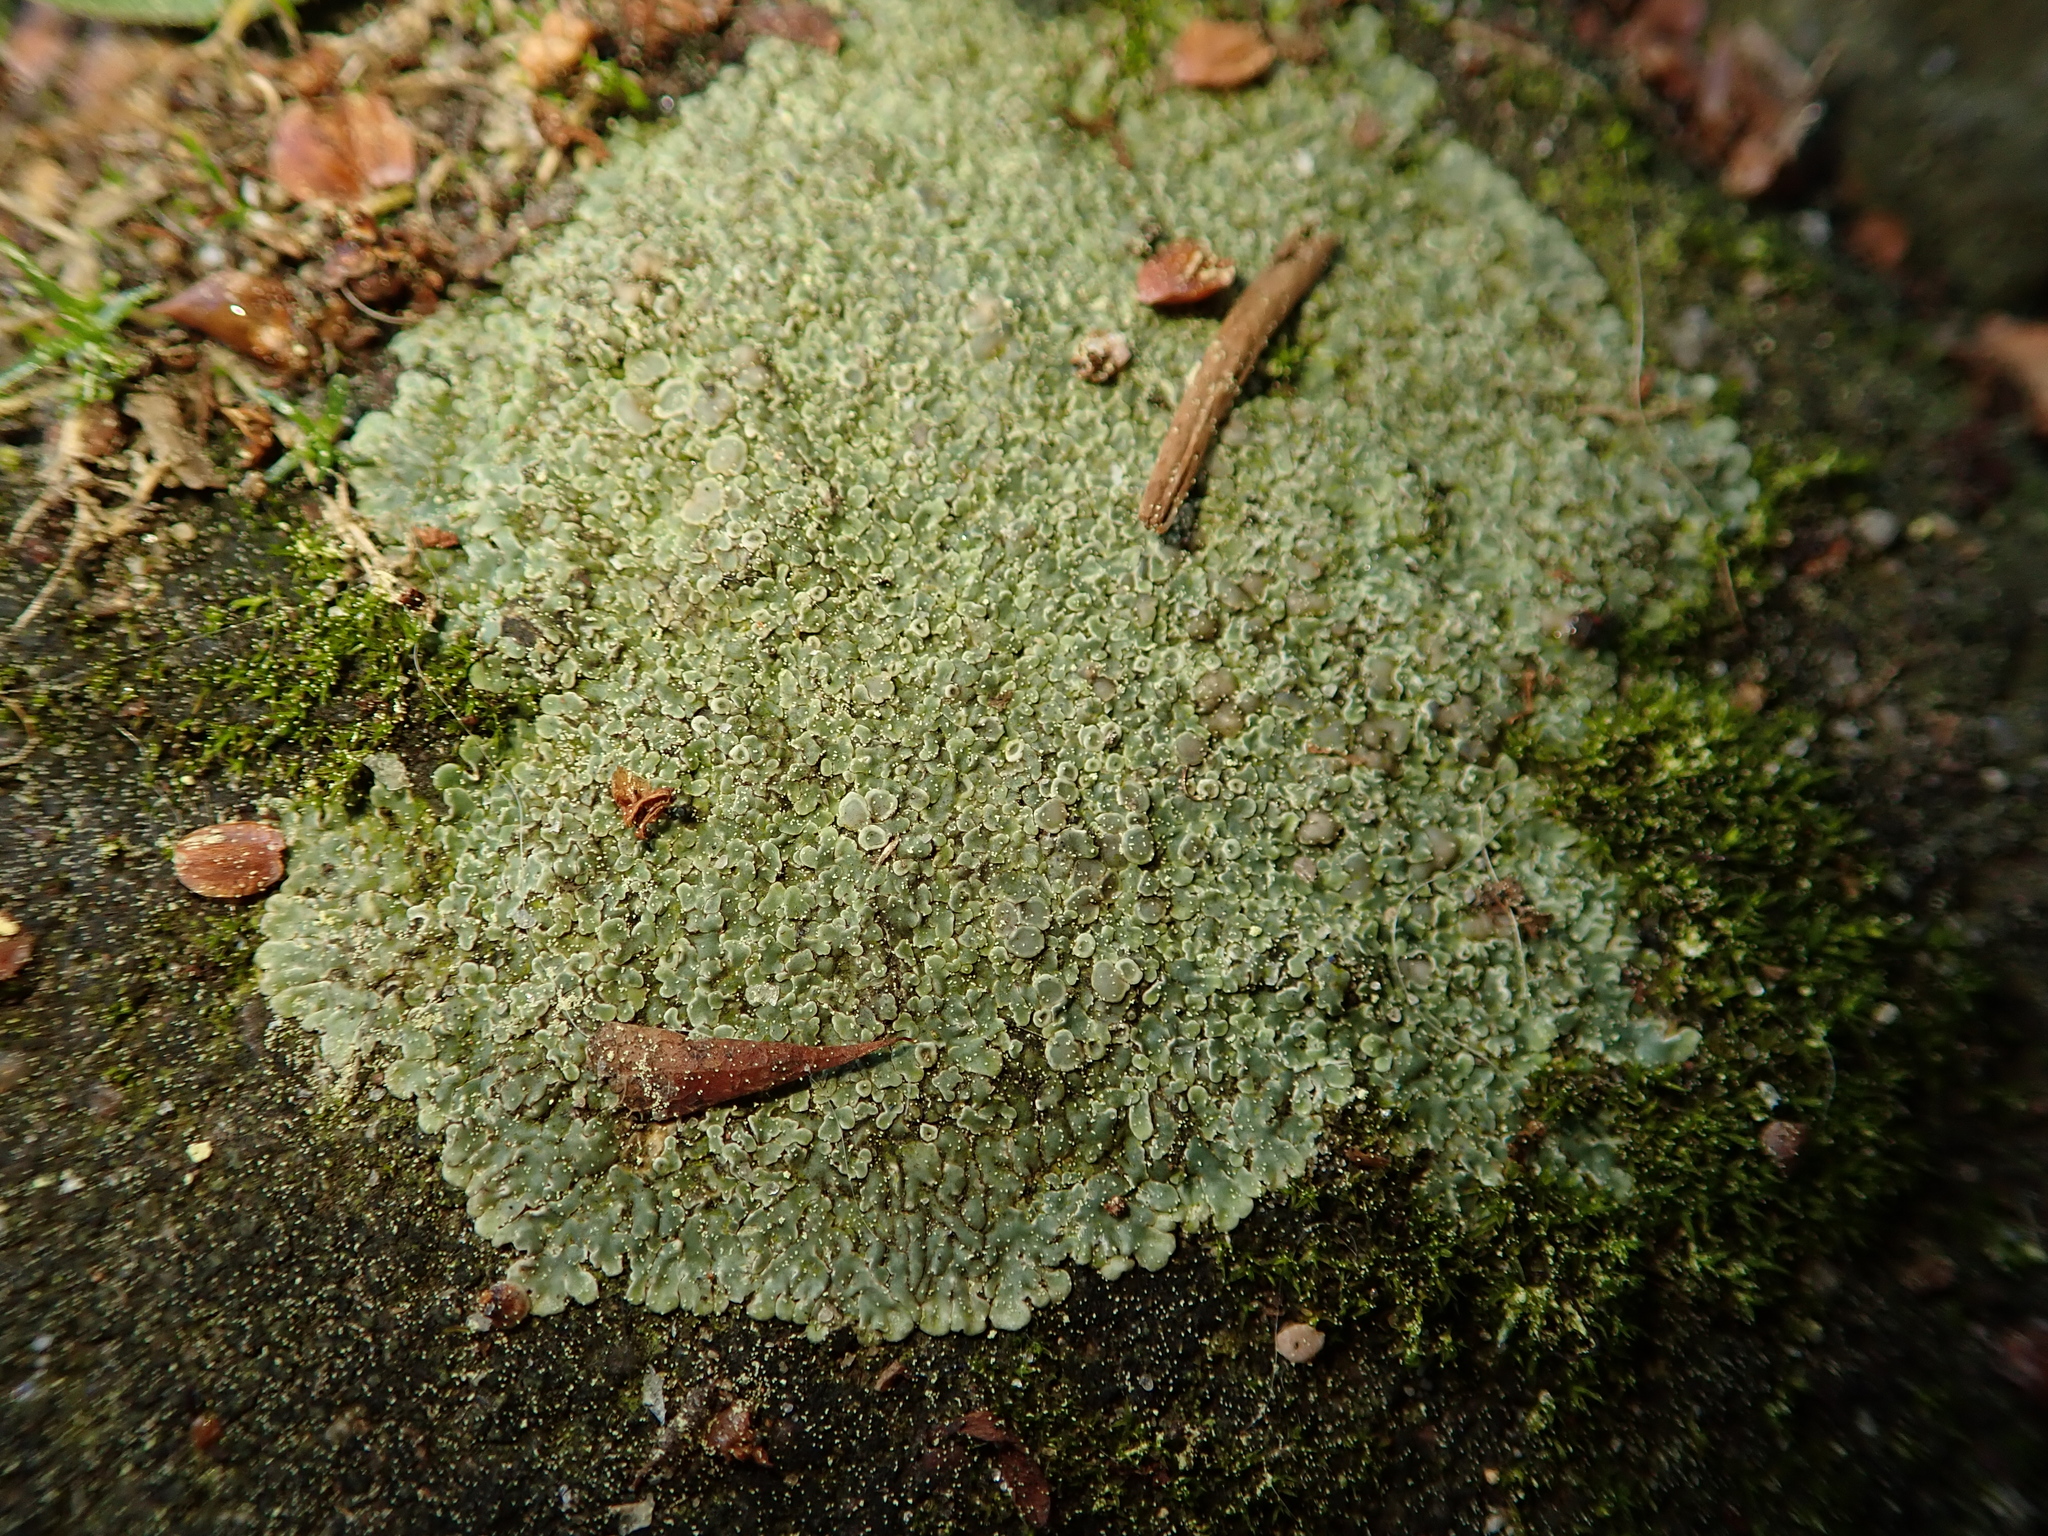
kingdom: Fungi
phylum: Ascomycota
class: Lecanoromycetes
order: Lecanorales
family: Lecanoraceae
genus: Protoparmeliopsis
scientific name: Protoparmeliopsis muralis
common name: Stonewall rim lichen
